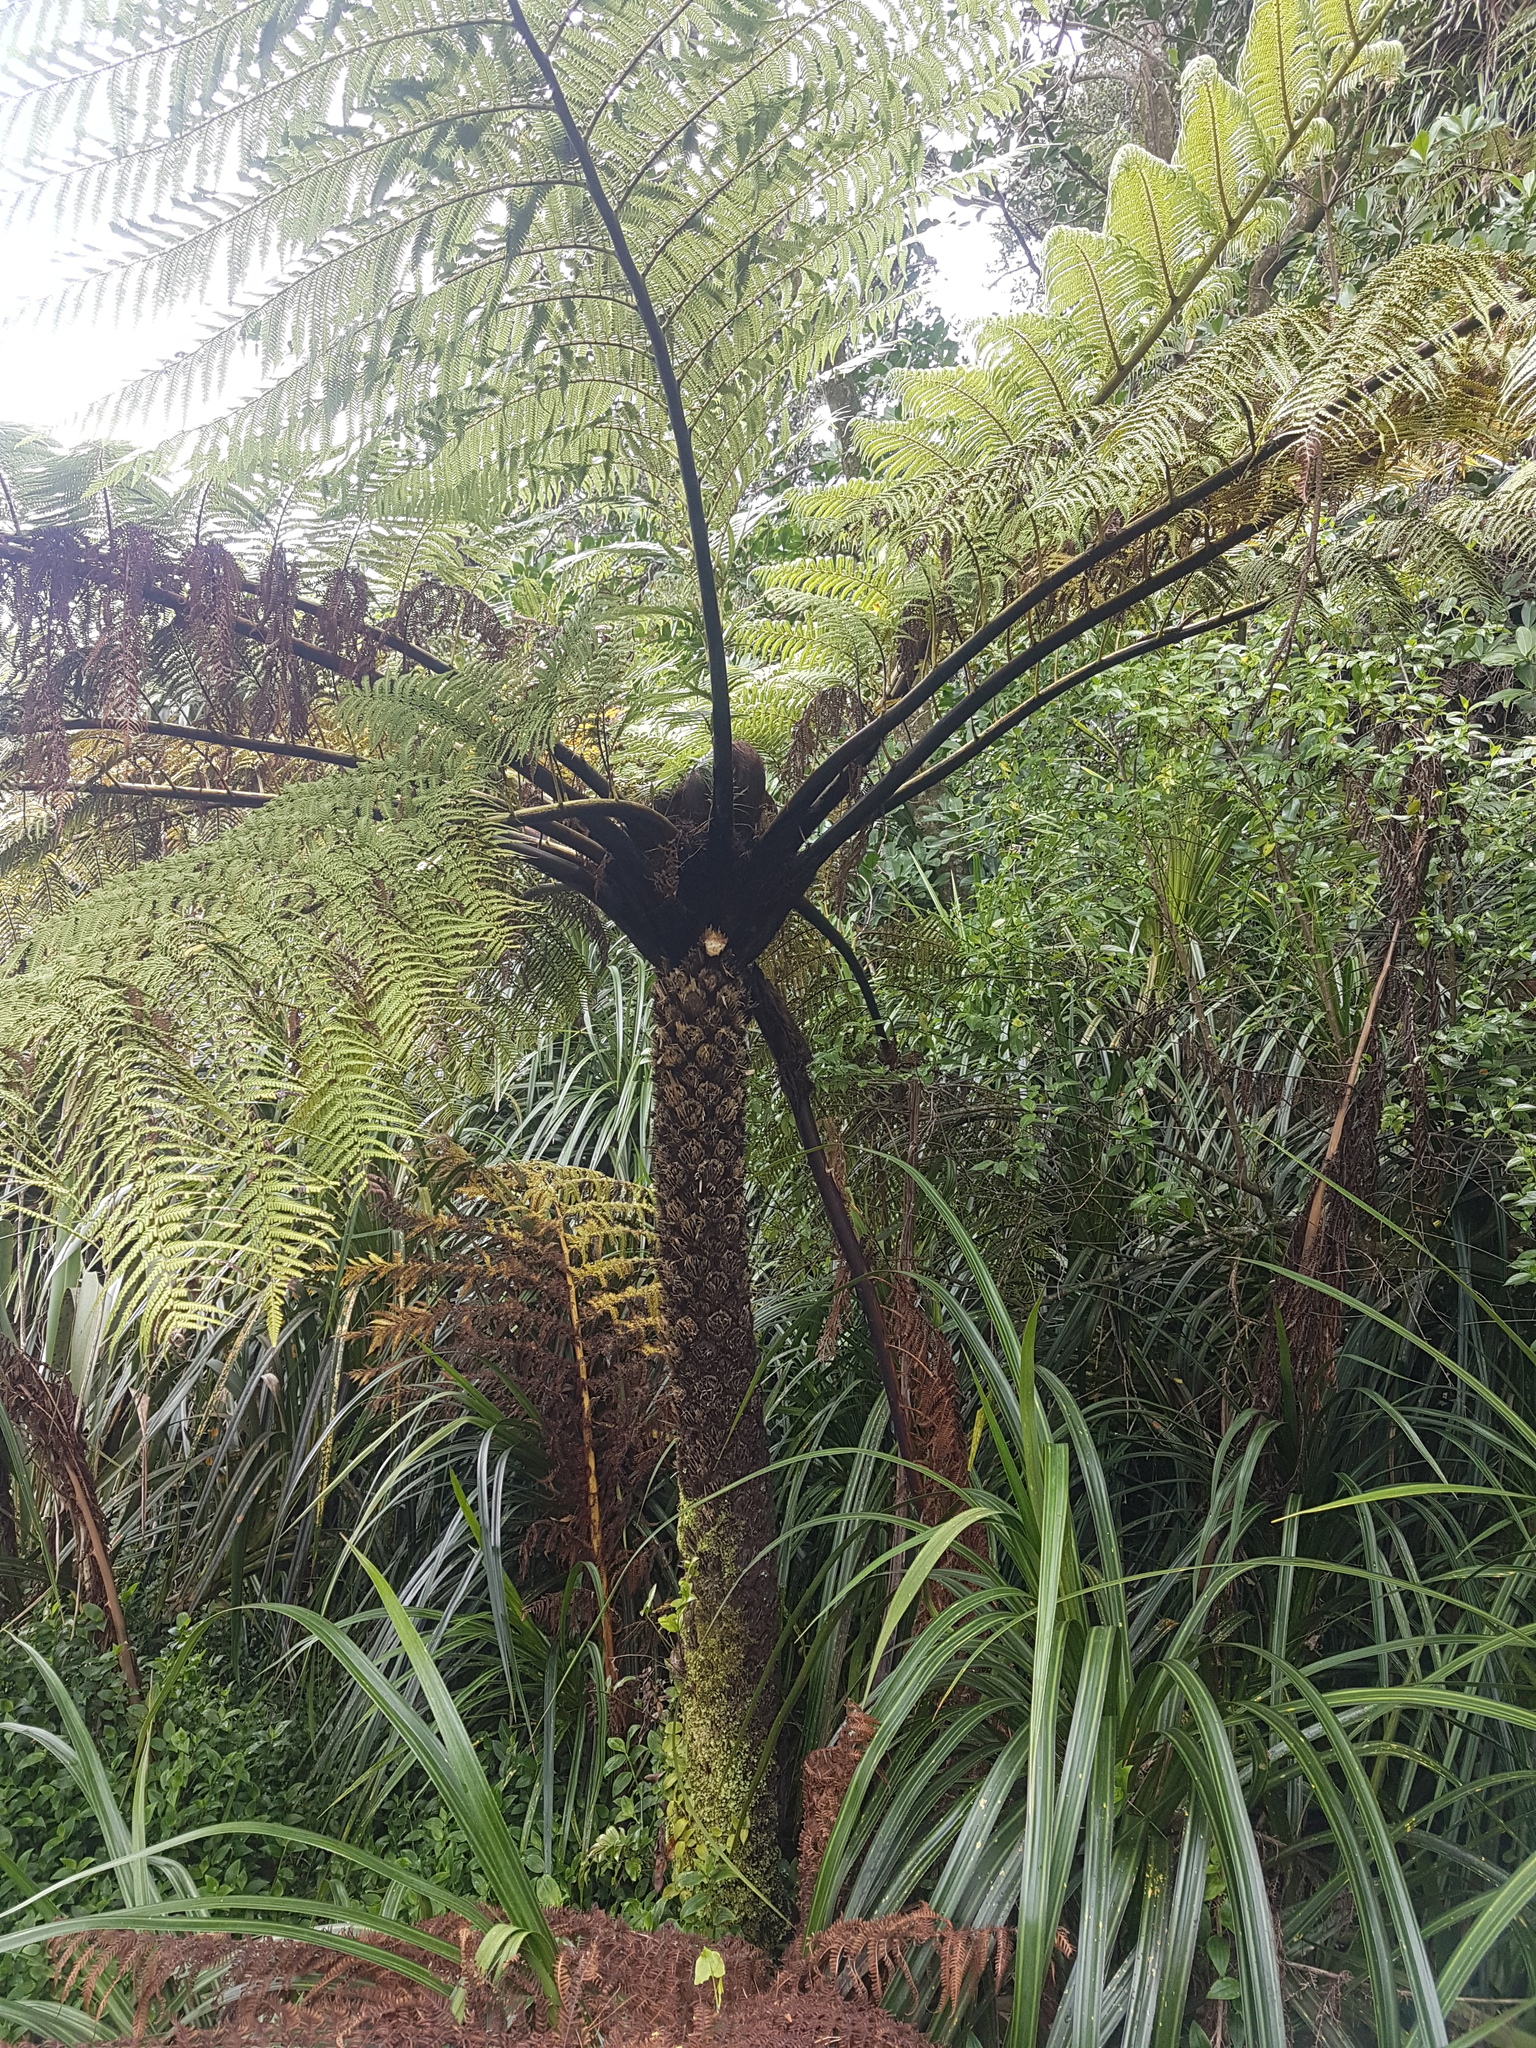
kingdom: Plantae
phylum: Tracheophyta
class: Polypodiopsida
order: Cyatheales
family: Cyatheaceae
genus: Sphaeropteris
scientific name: Sphaeropteris medullaris
